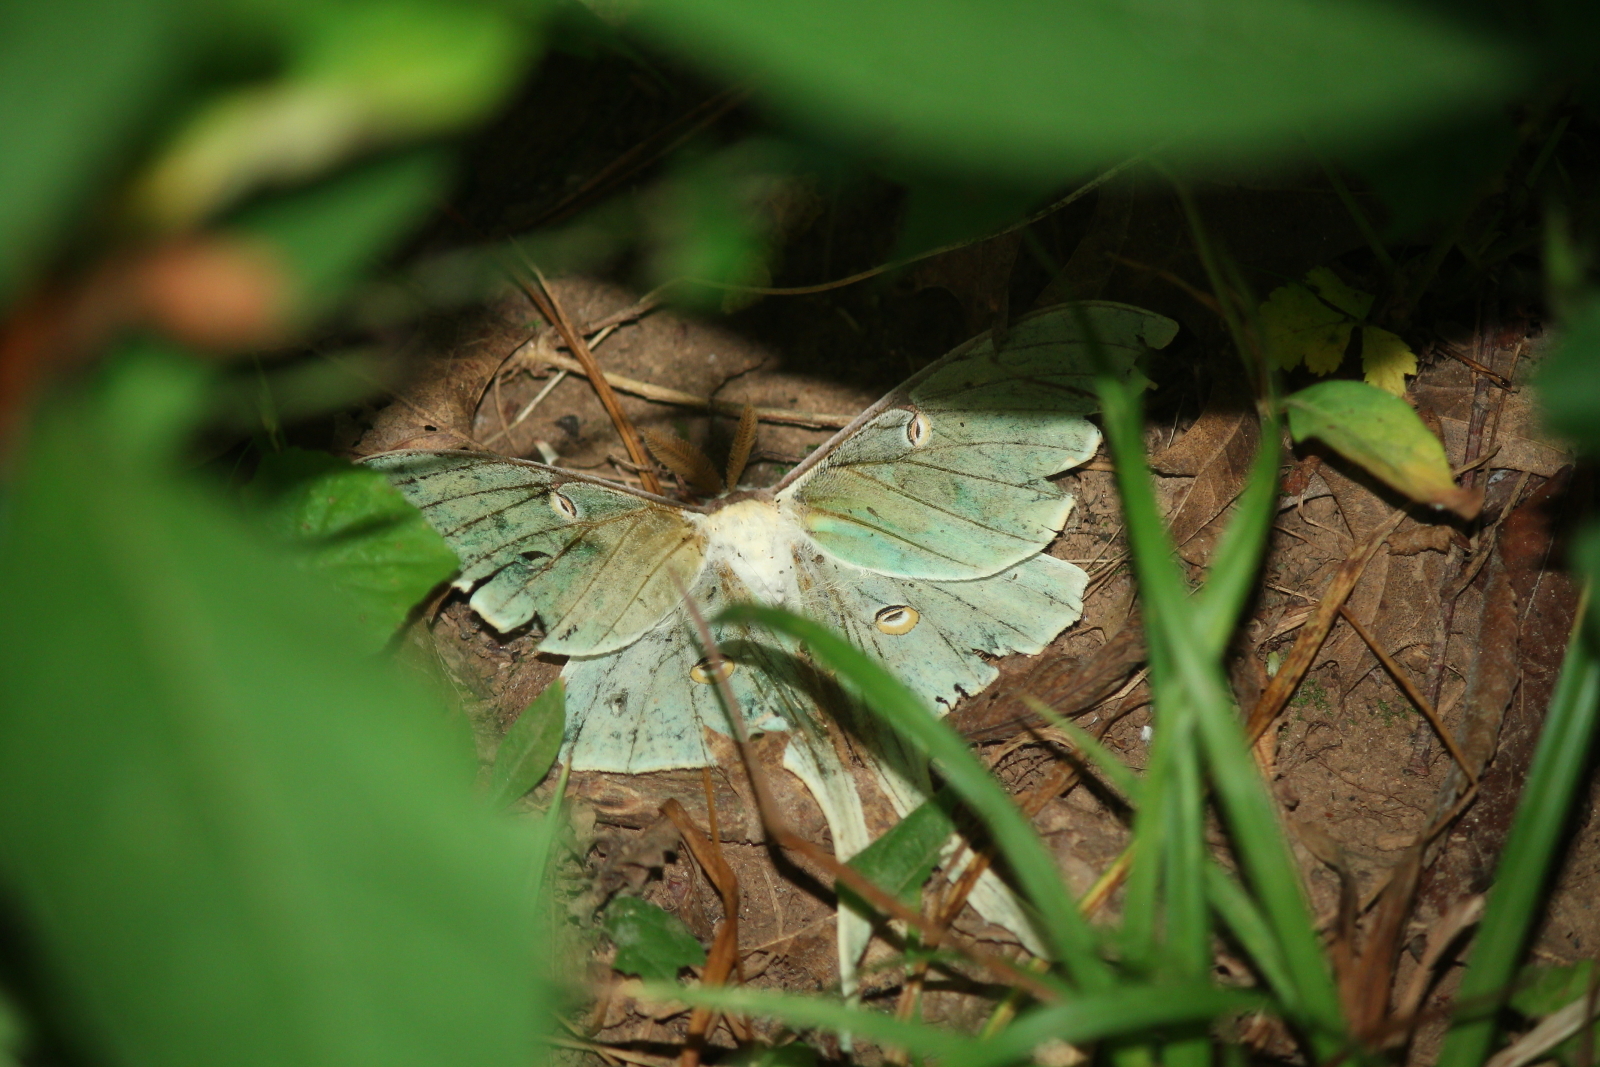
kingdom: Animalia
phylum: Arthropoda
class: Insecta
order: Lepidoptera
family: Saturniidae
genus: Actias
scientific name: Actias luna
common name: Luna moth
